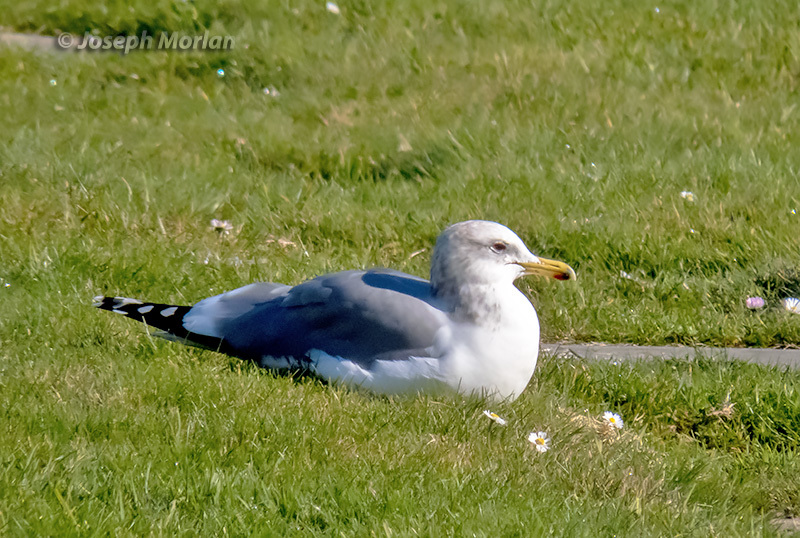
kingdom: Animalia
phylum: Chordata
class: Aves
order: Charadriiformes
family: Laridae
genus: Larus
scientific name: Larus californicus
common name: California gull
